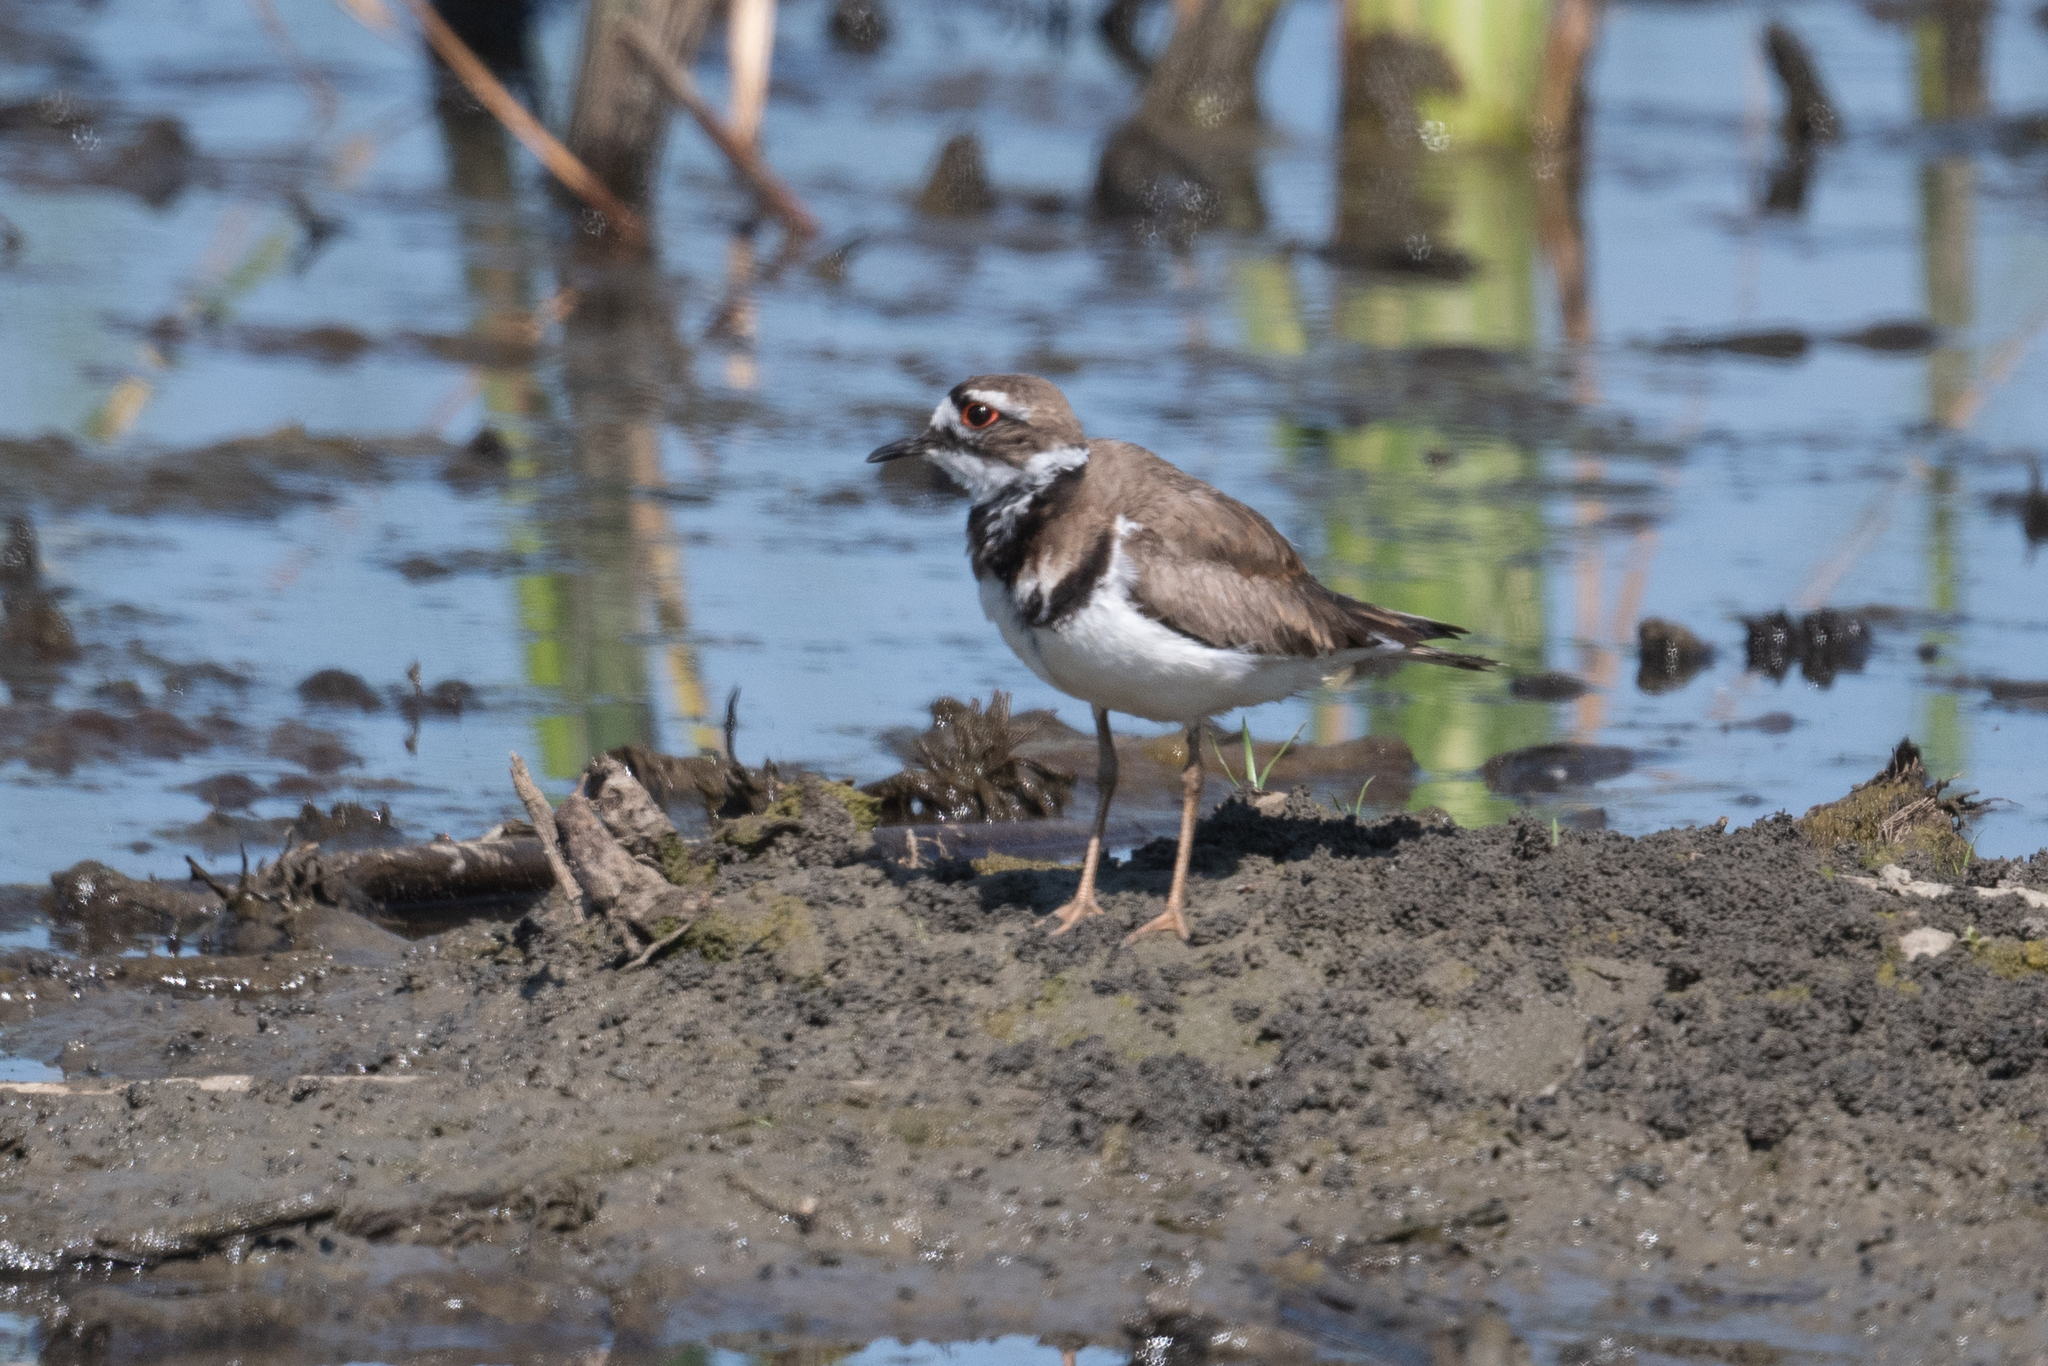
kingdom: Animalia
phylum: Chordata
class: Aves
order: Charadriiformes
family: Charadriidae
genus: Charadrius
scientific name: Charadrius vociferus
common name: Killdeer
